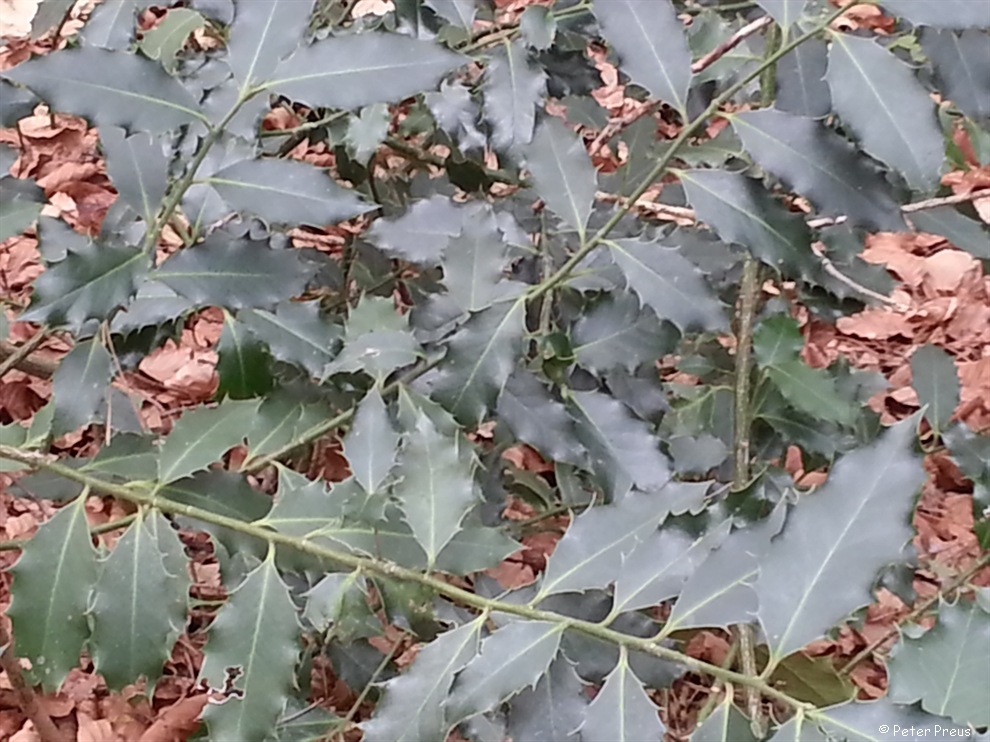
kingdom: Plantae
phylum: Tracheophyta
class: Magnoliopsida
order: Aquifoliales
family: Aquifoliaceae
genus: Ilex
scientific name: Ilex aquifolium
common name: English holly
